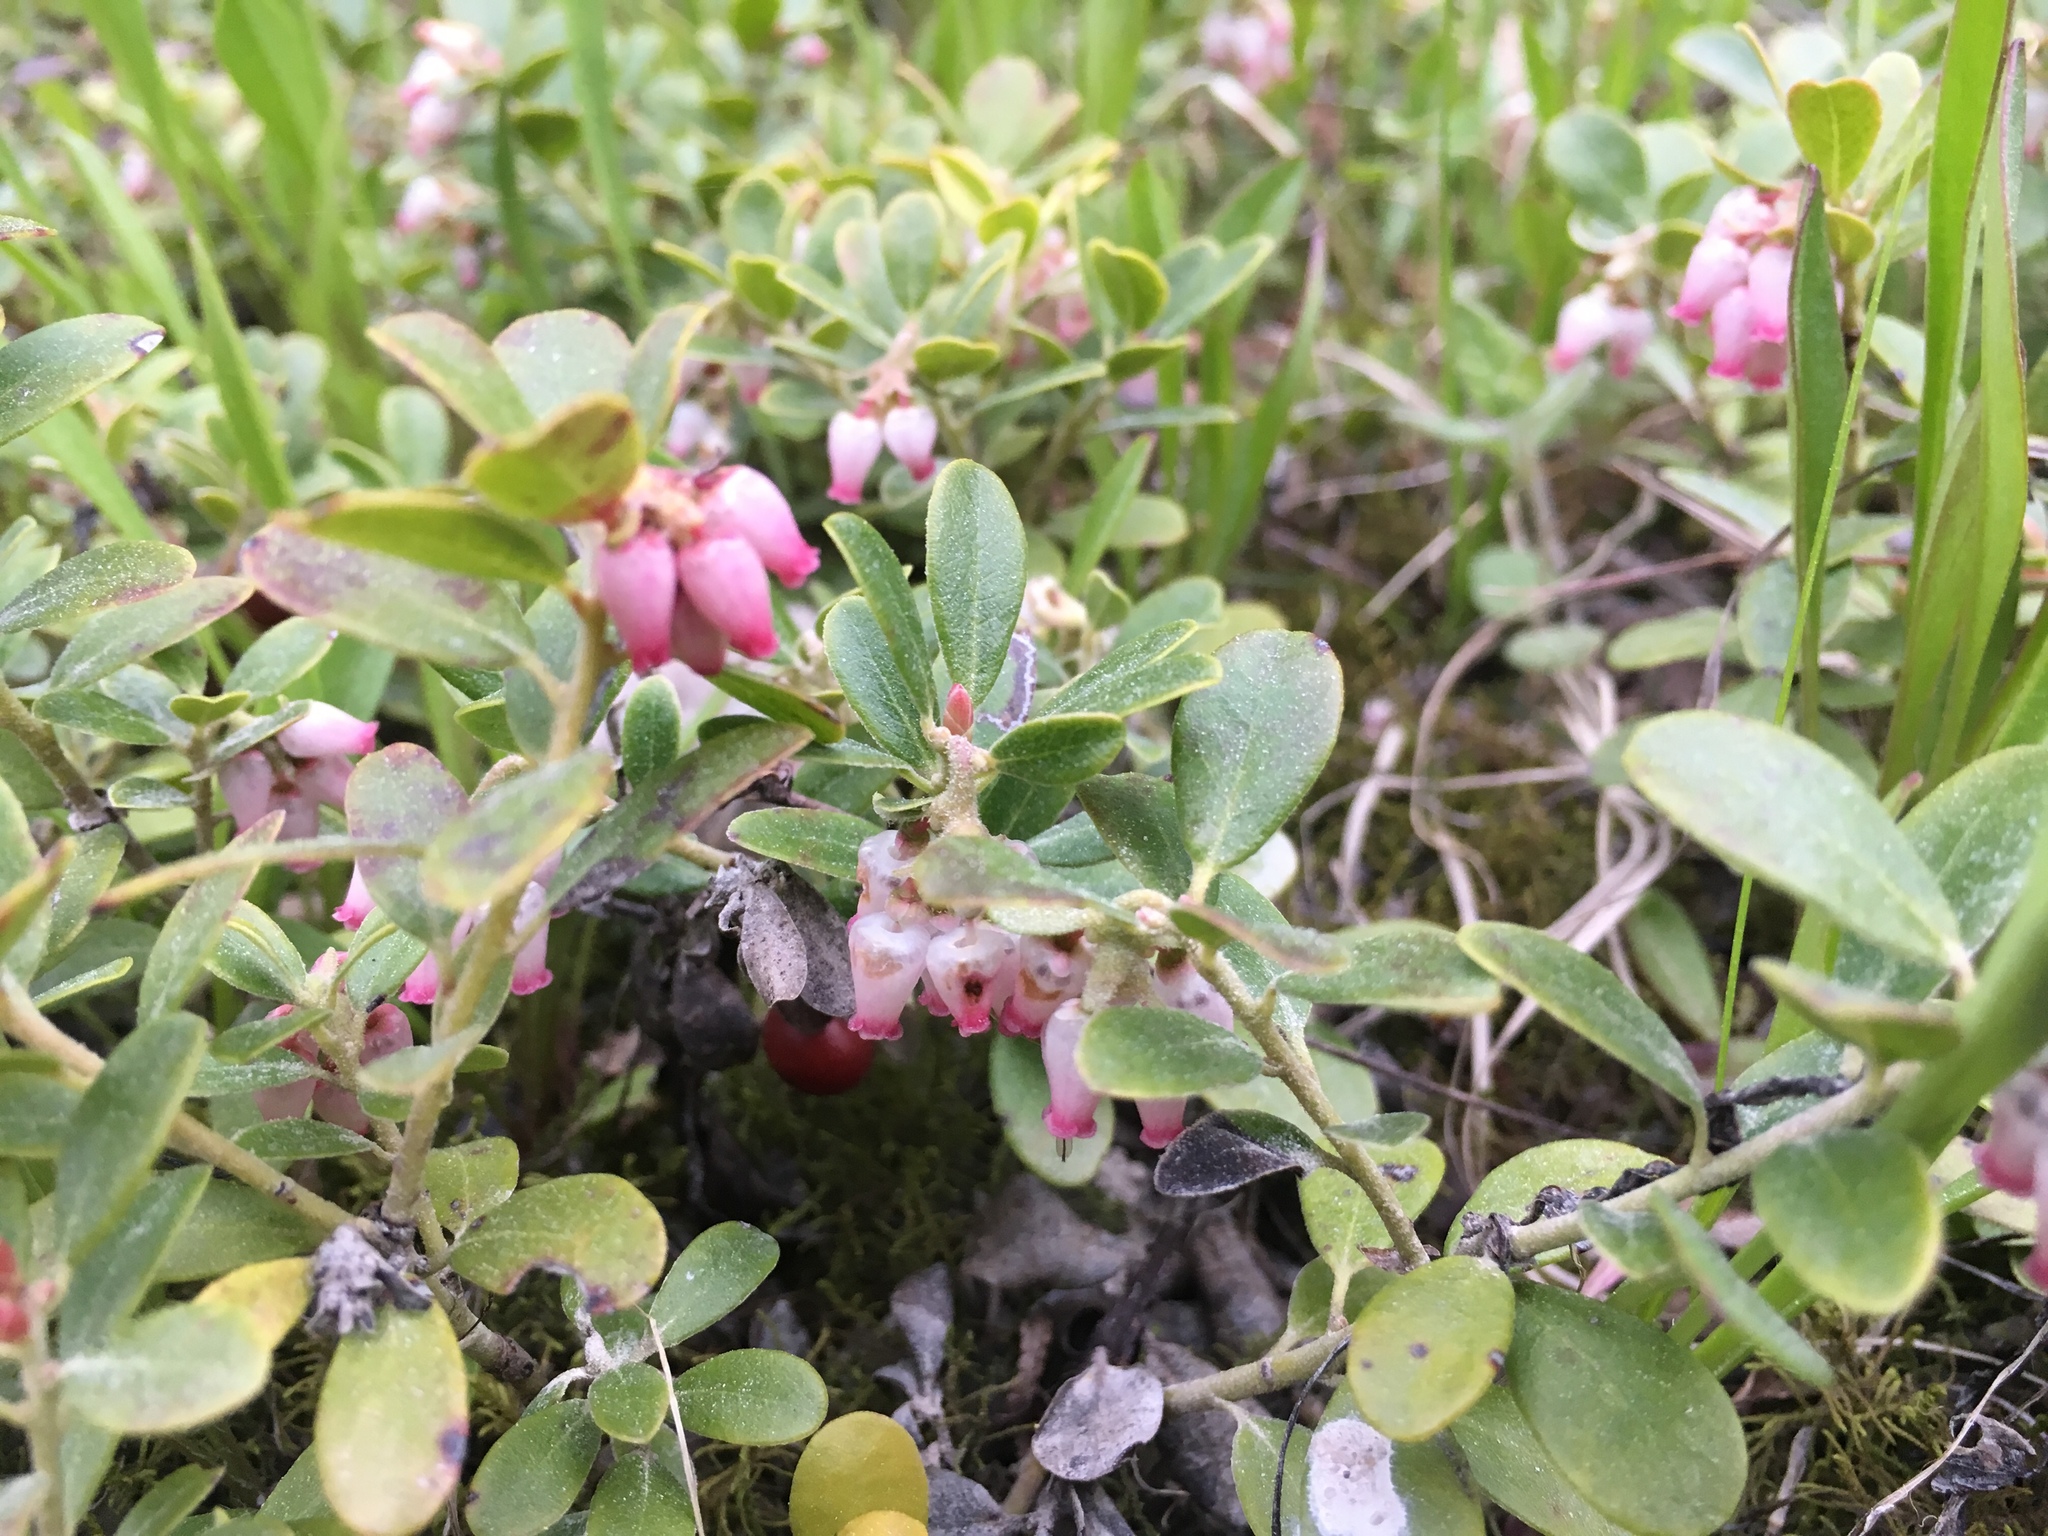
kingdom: Plantae
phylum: Tracheophyta
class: Magnoliopsida
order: Ericales
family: Ericaceae
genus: Arctostaphylos
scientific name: Arctostaphylos uva-ursi
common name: Bearberry
